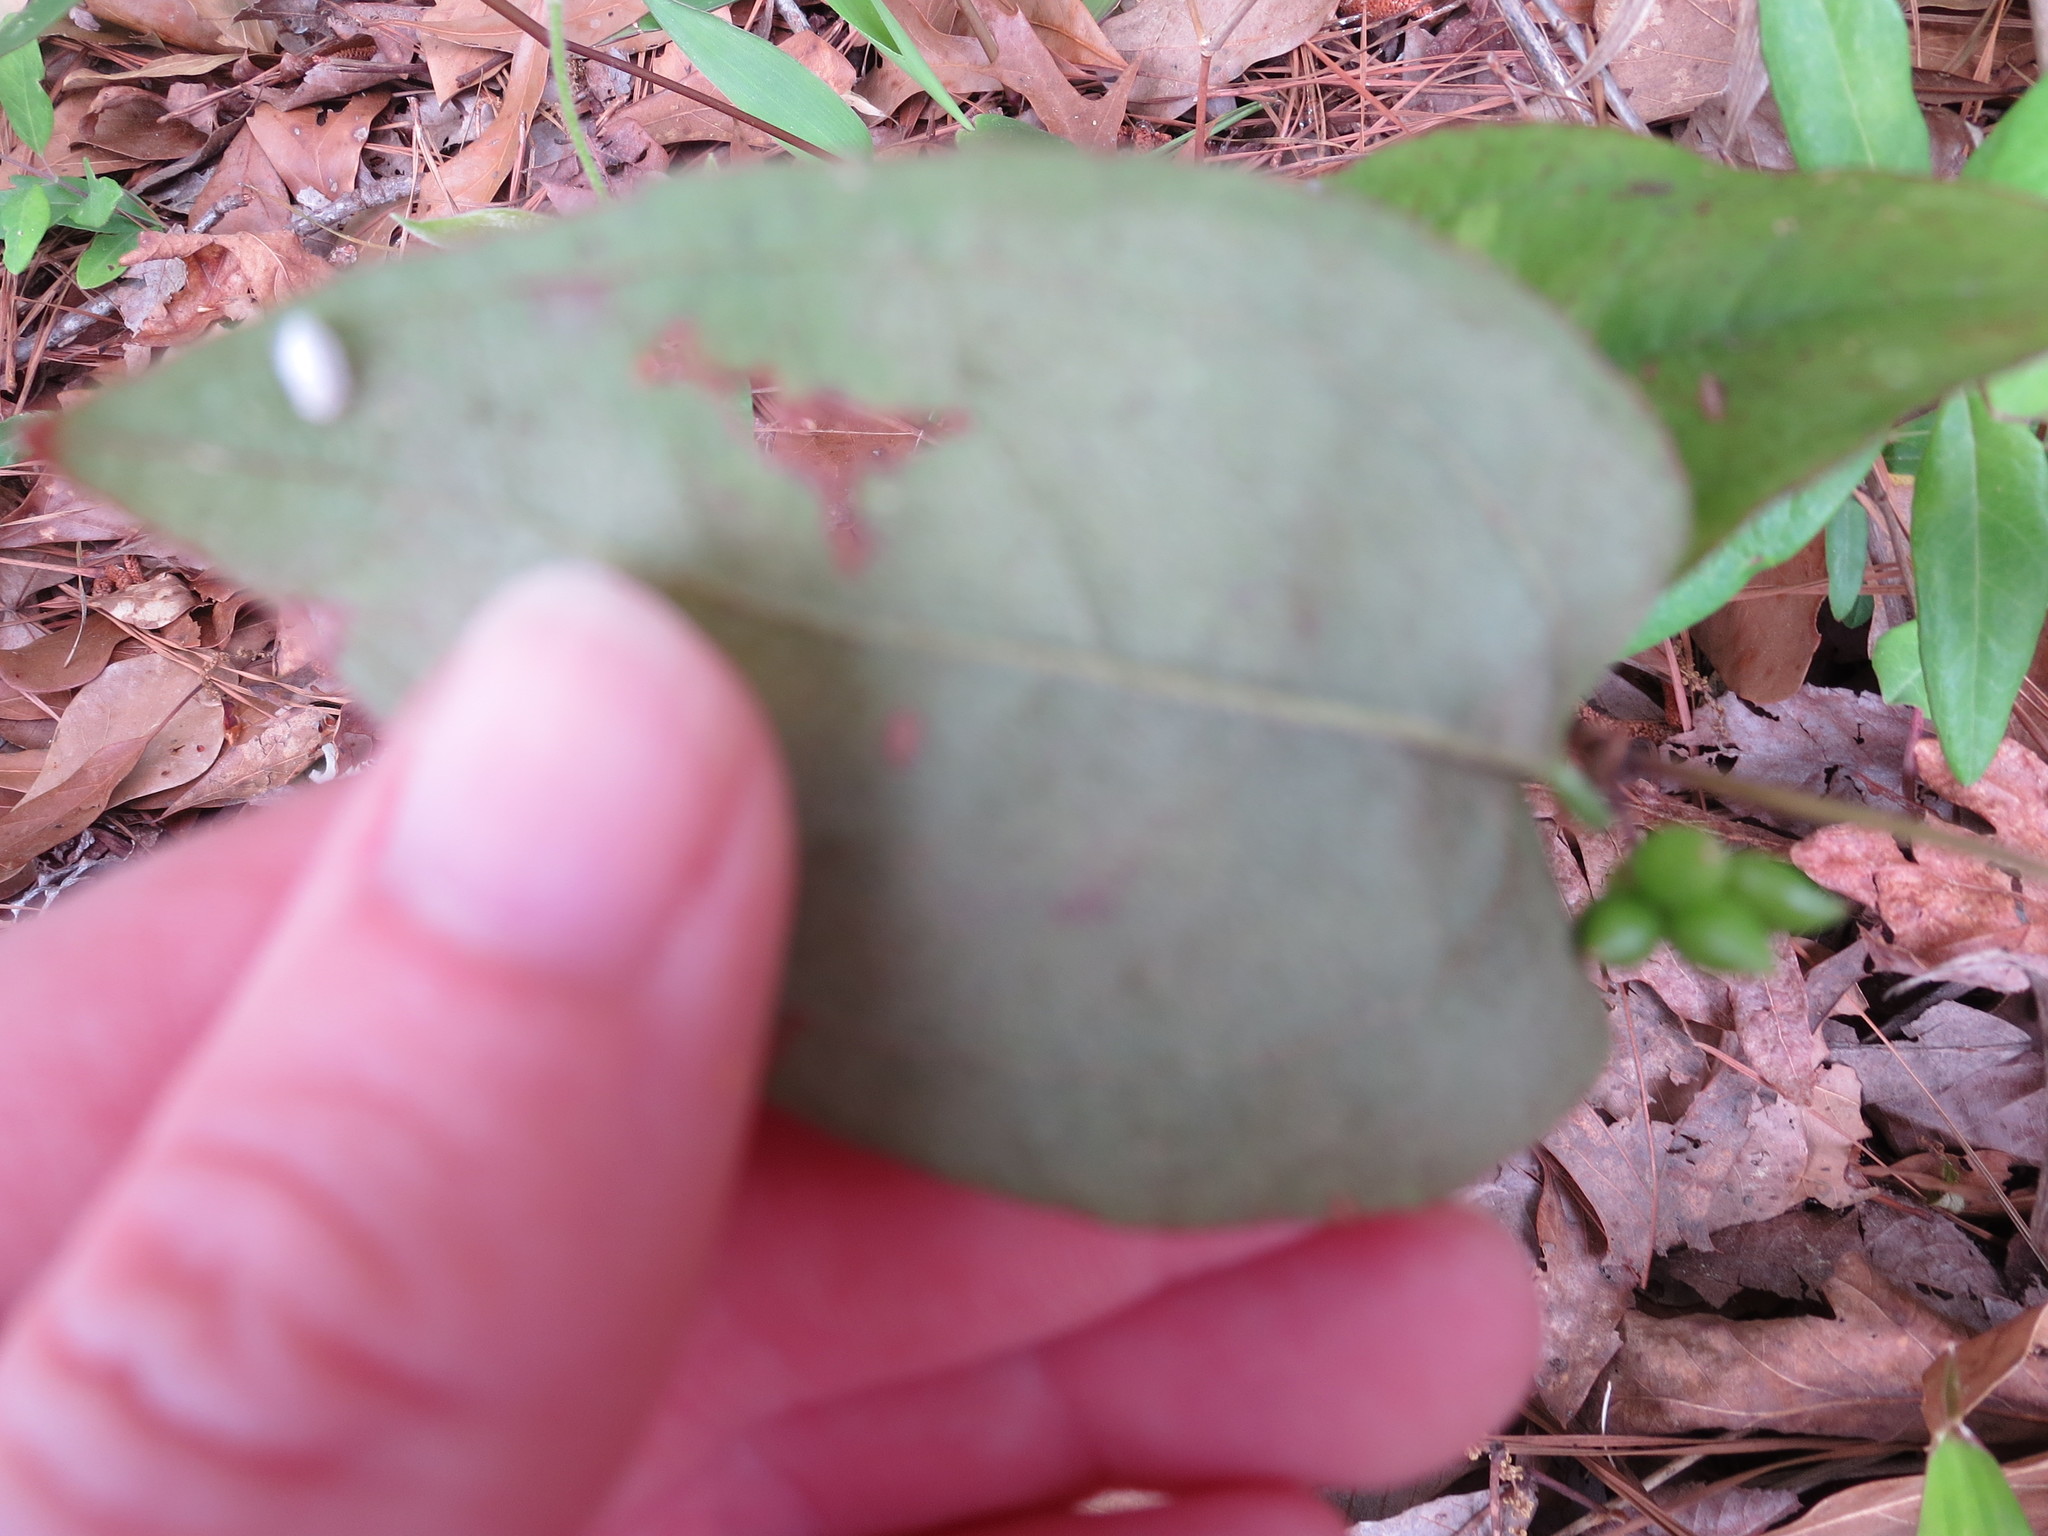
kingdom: Plantae
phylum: Tracheophyta
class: Liliopsida
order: Liliales
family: Smilacaceae
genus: Smilax
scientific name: Smilax pumila
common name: Sarsaparilla-vine
